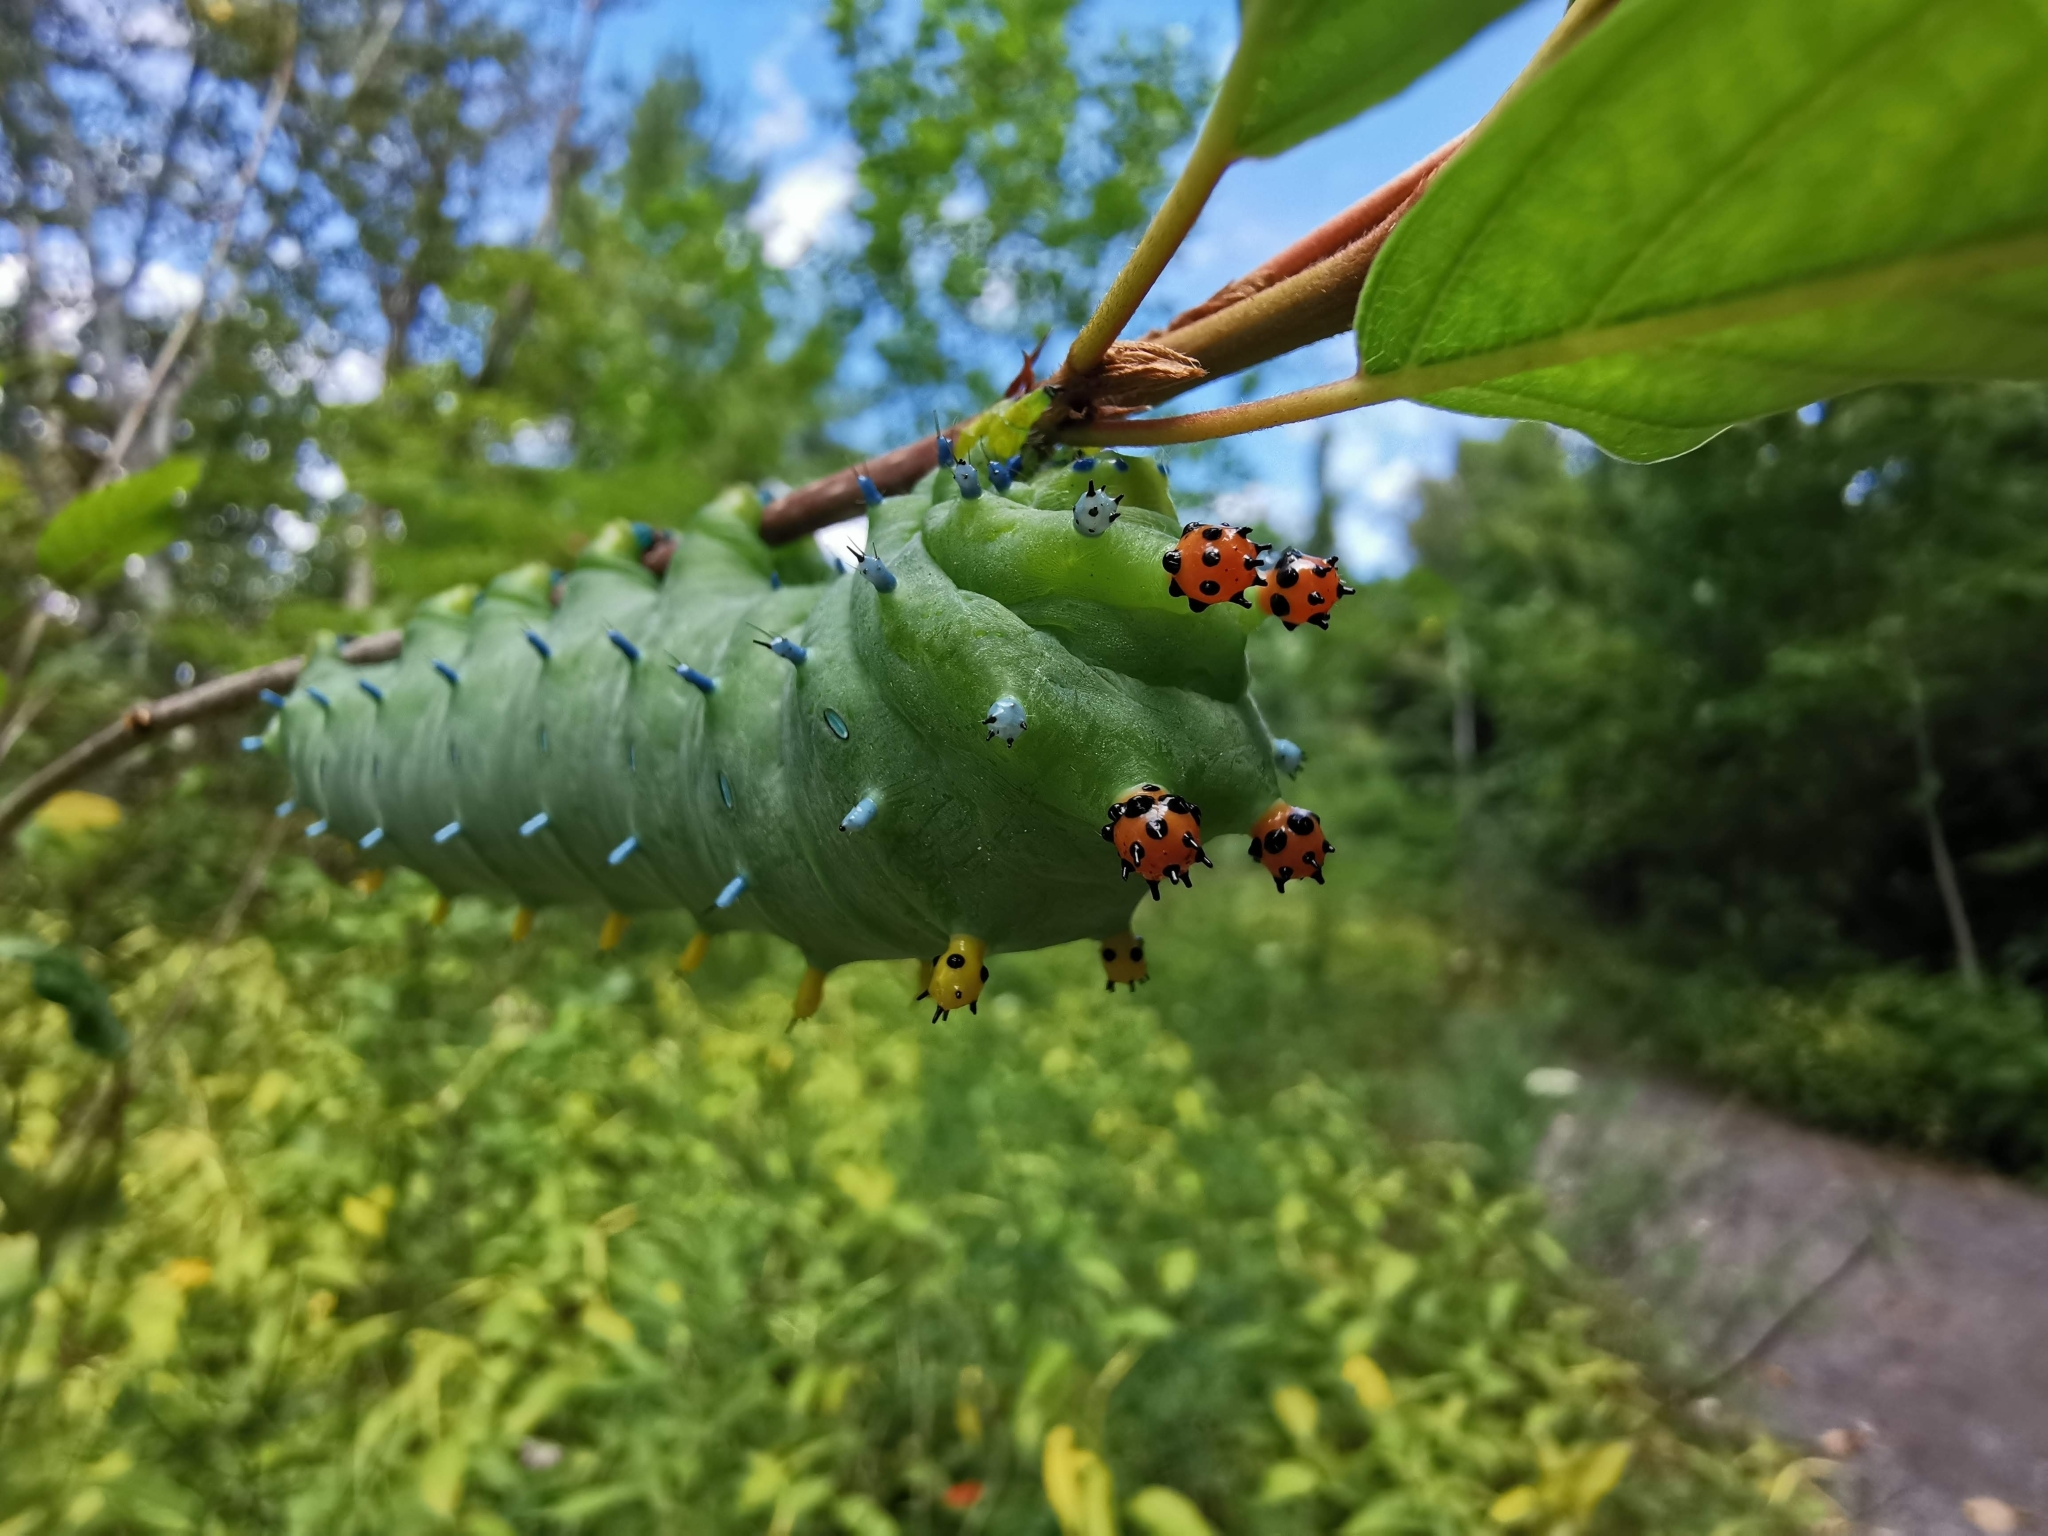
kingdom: Animalia
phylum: Arthropoda
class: Insecta
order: Lepidoptera
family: Saturniidae
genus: Hyalophora
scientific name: Hyalophora cecropia
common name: Cecropia silkmoth
